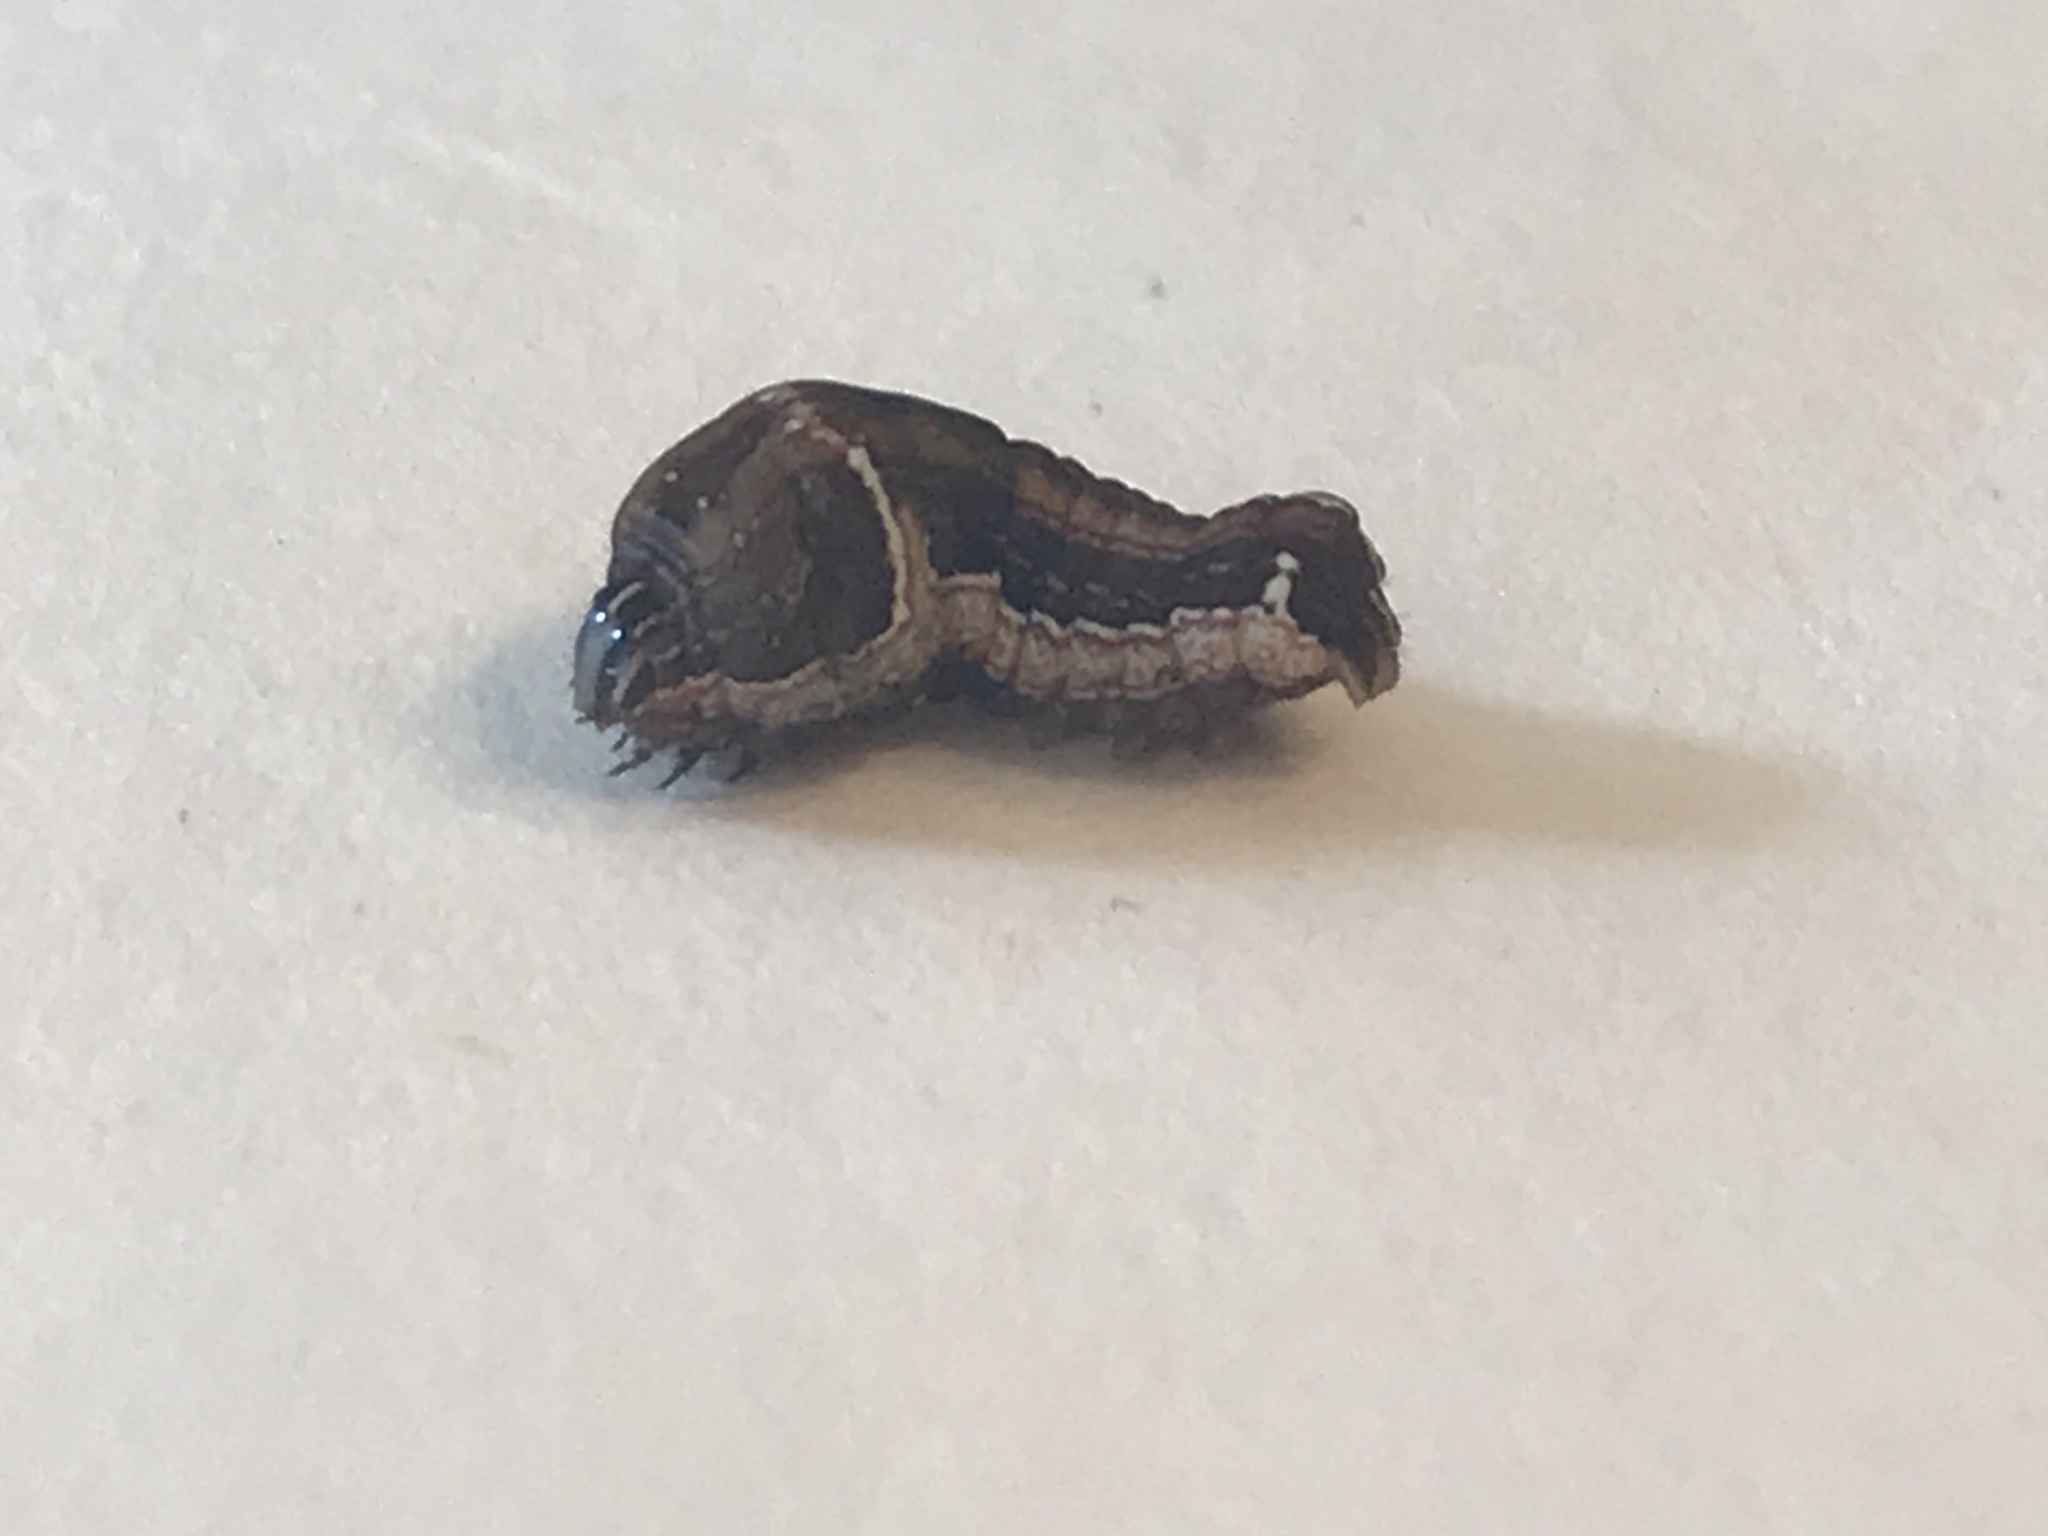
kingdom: Animalia
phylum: Arthropoda
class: Insecta
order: Lepidoptera
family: Noctuidae
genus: Galgula
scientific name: Galgula partita
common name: Wedgeling
